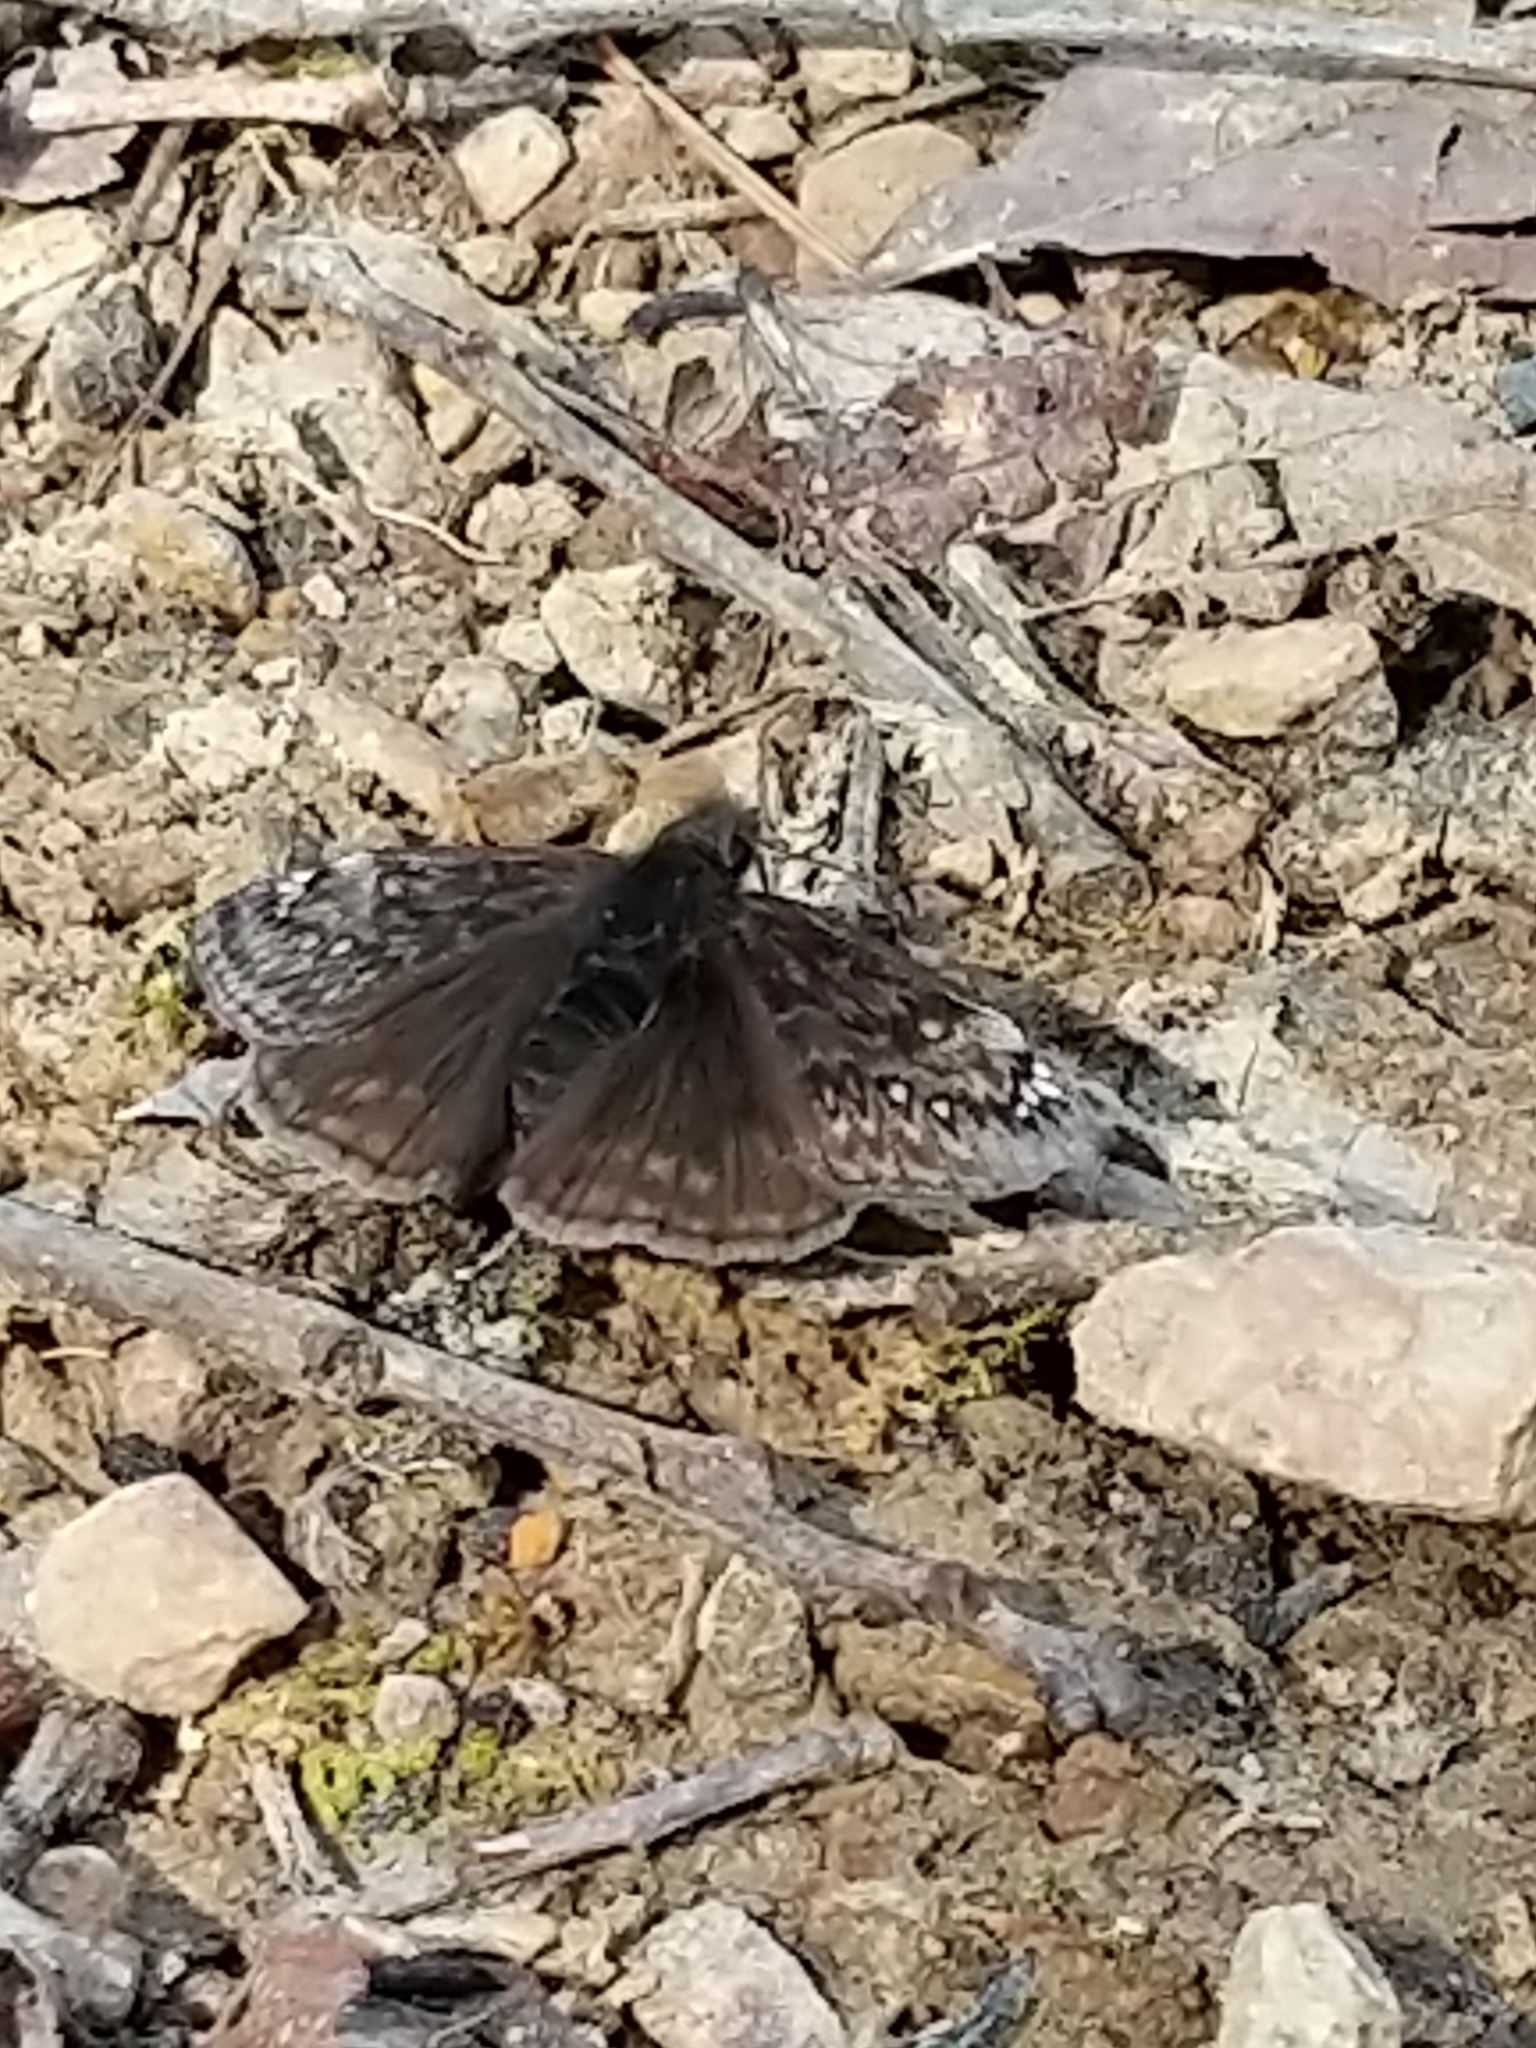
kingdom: Animalia
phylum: Arthropoda
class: Insecta
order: Lepidoptera
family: Hesperiidae
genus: Erynnis
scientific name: Erynnis juvenalis
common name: Juvenal's duskywing
